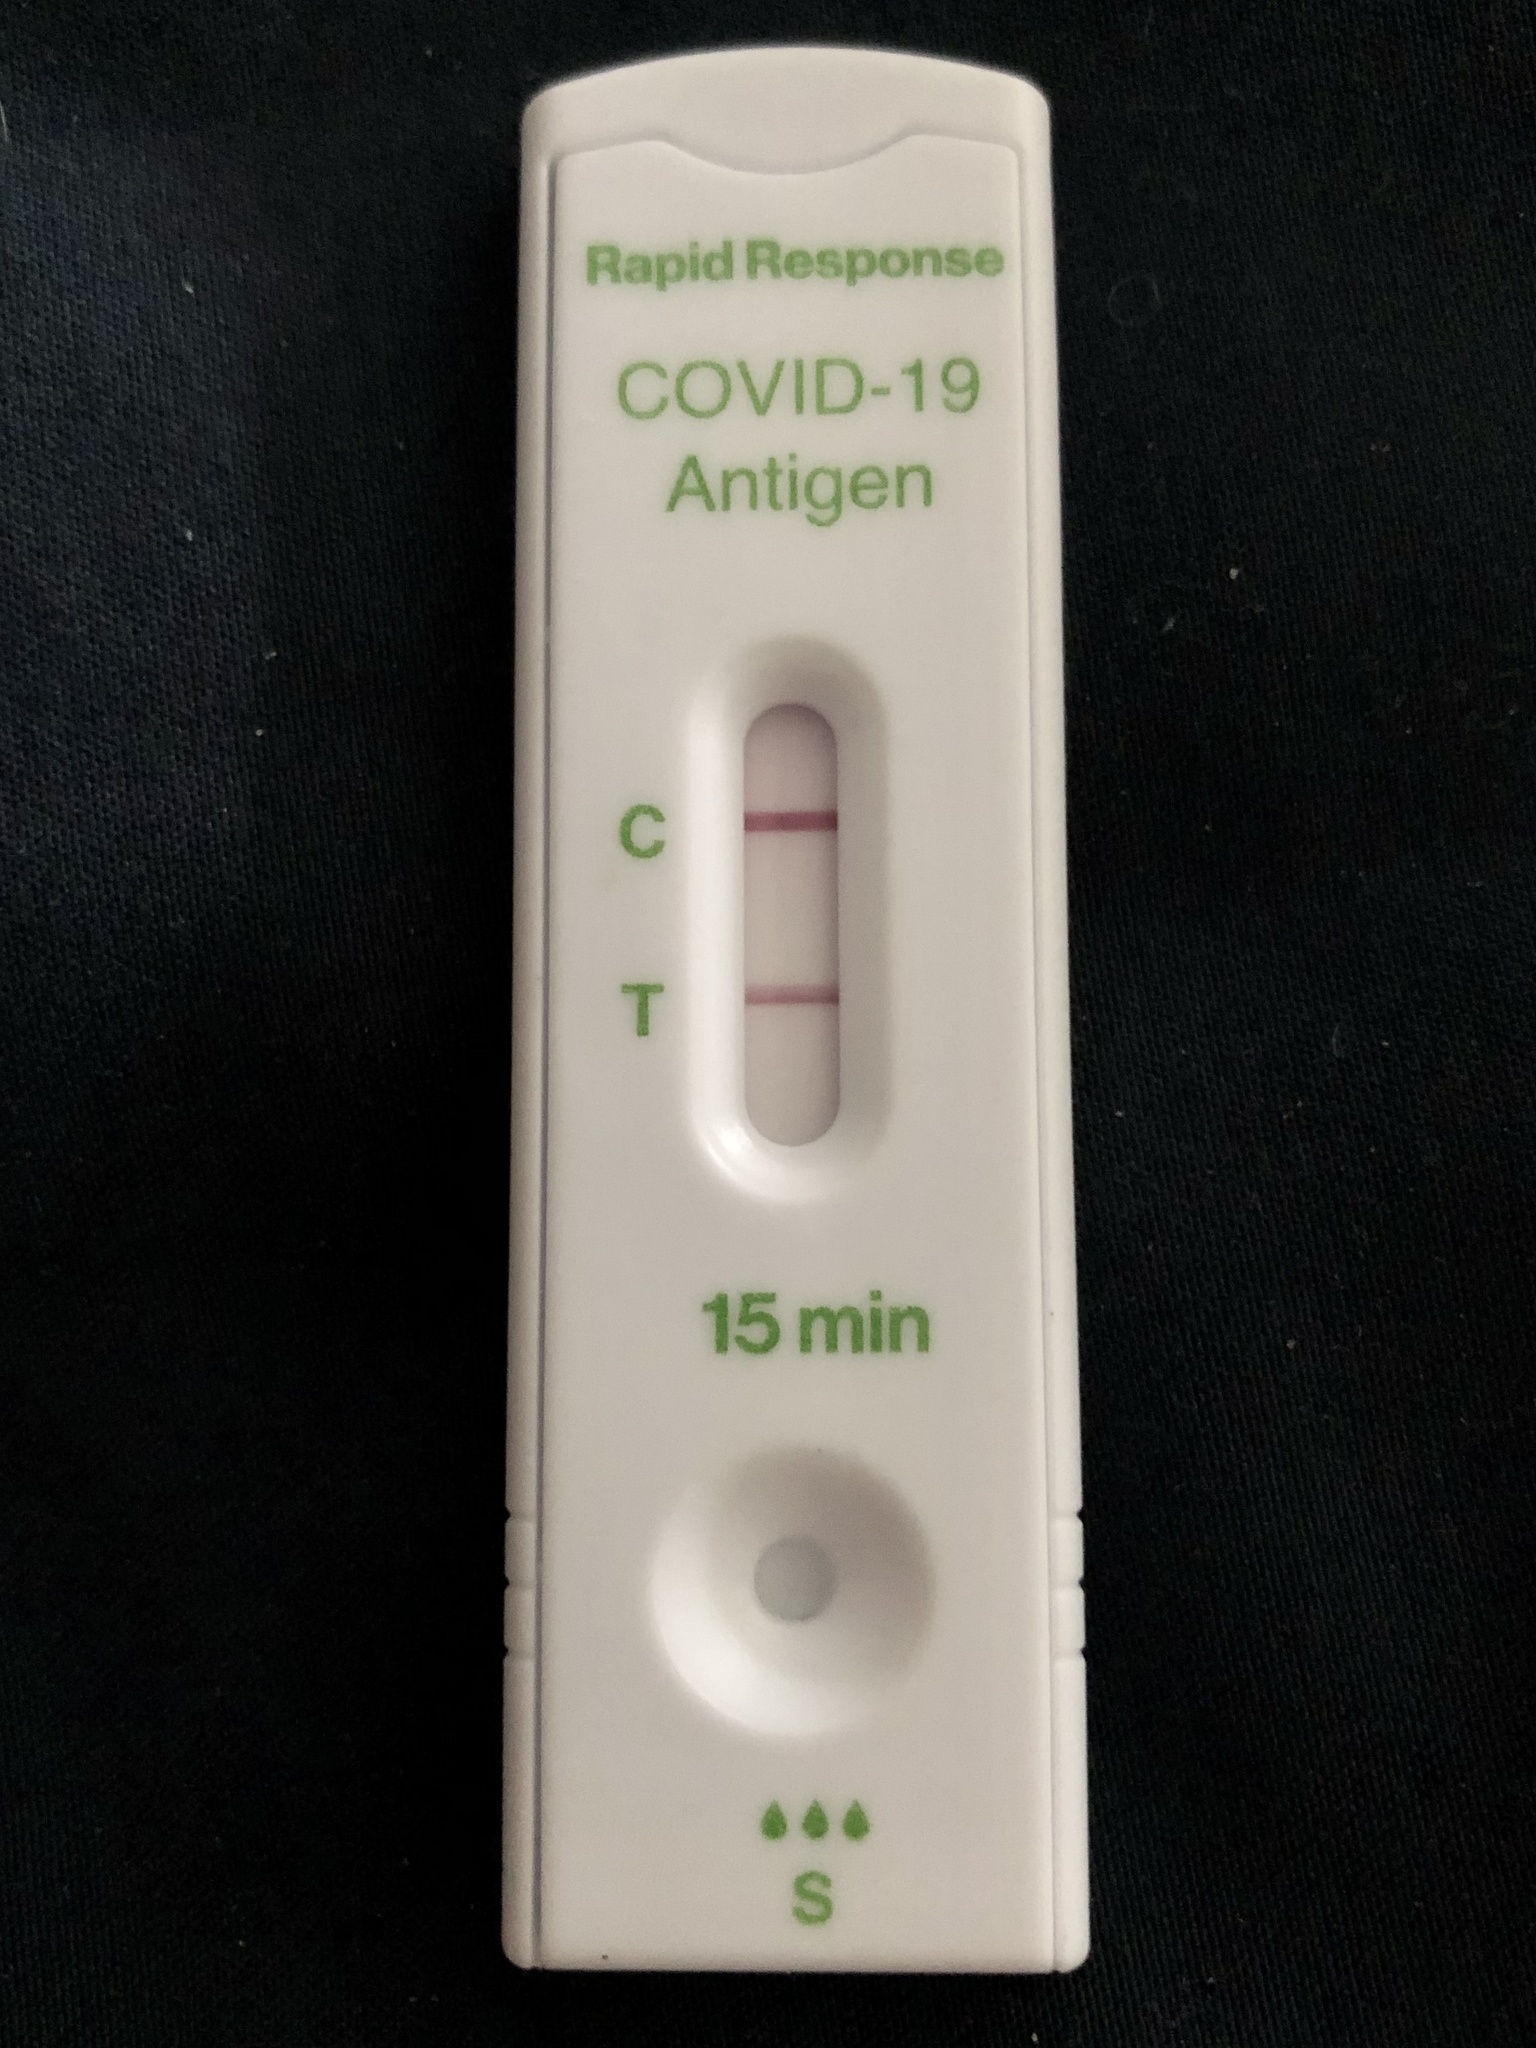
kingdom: Viruses
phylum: Pisuviricota
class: Pisoniviricetes
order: Nidovirales
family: Coronaviridae
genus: Betacoronavirus
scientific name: Betacoronavirus
